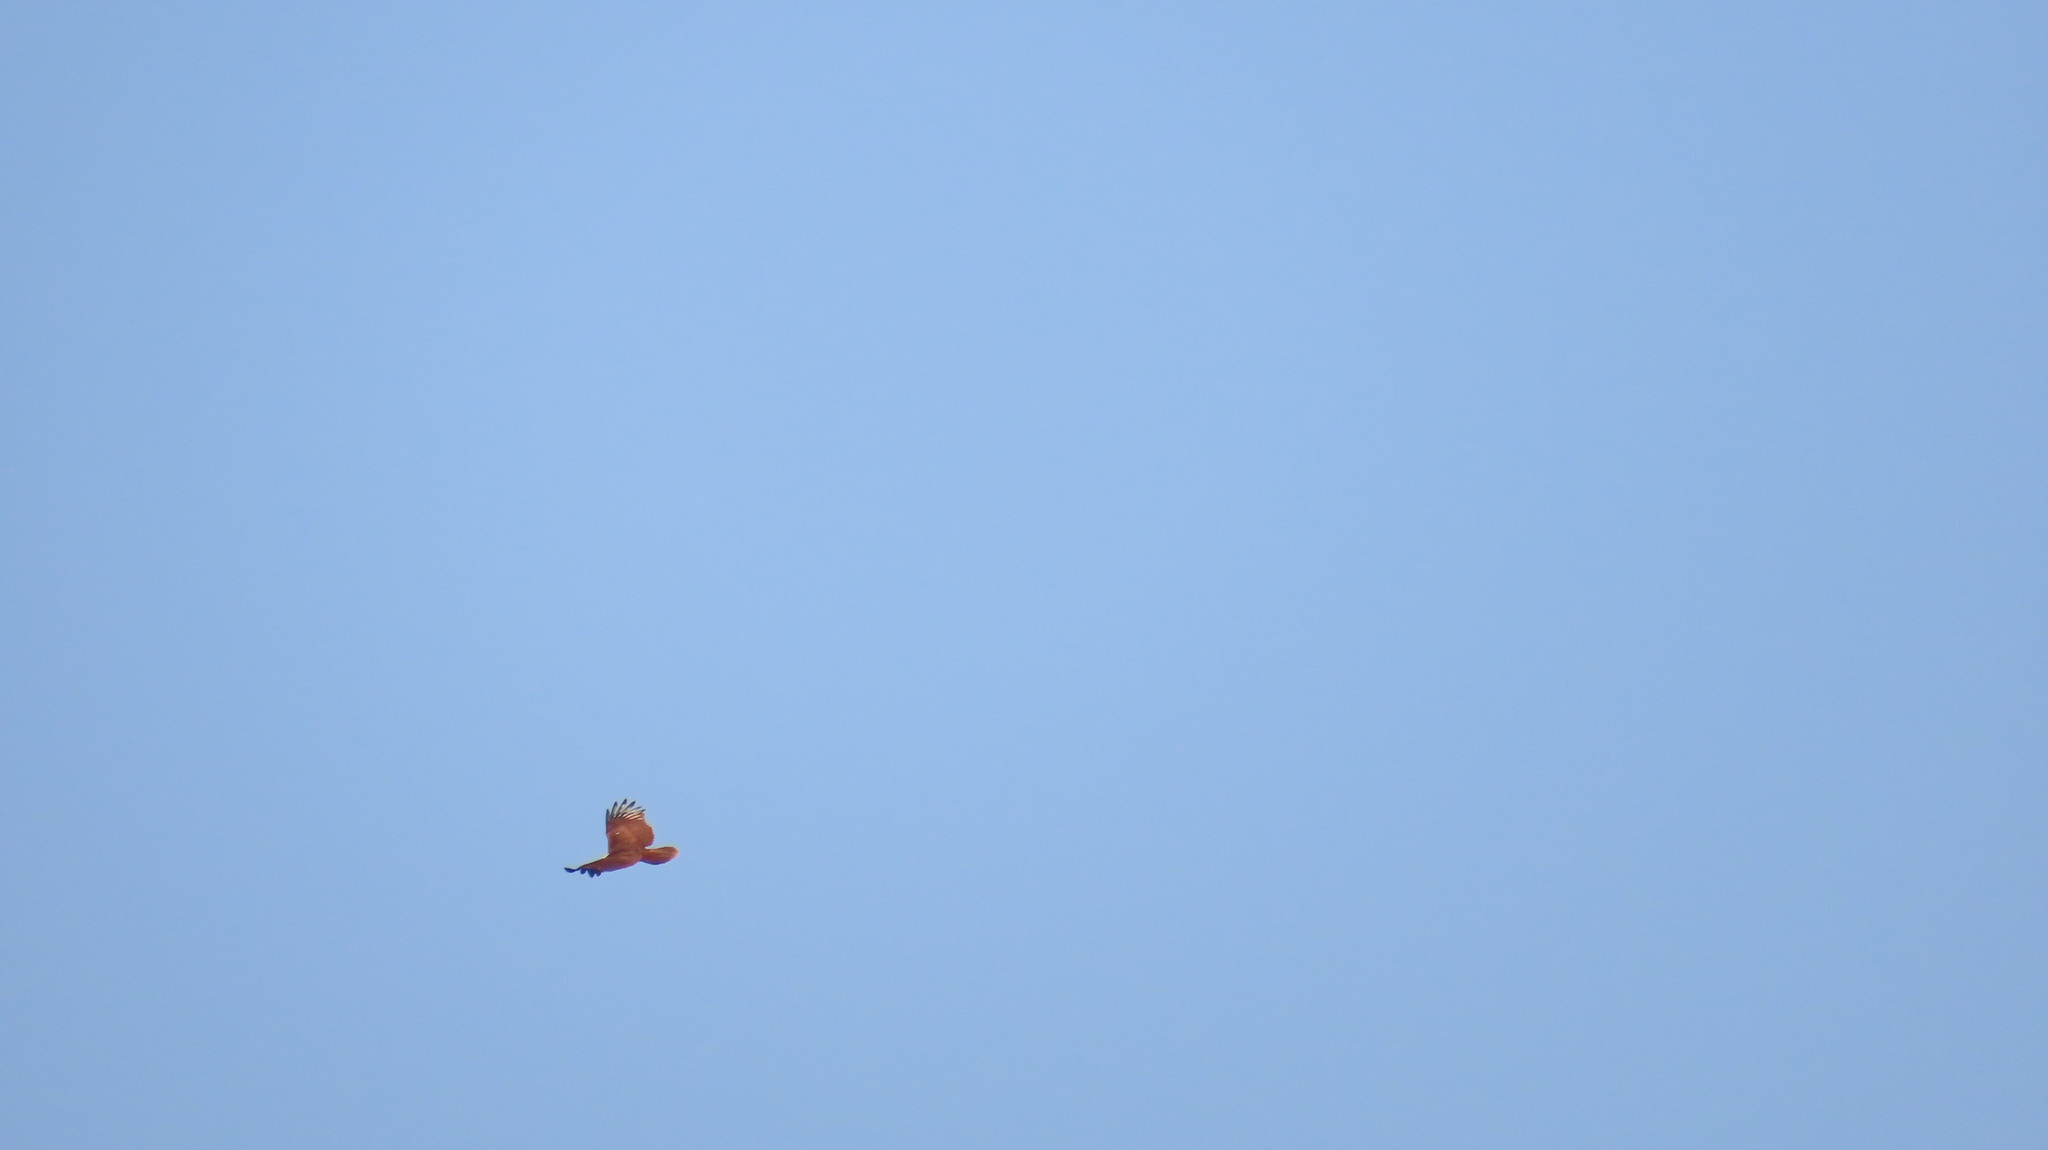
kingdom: Animalia
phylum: Chordata
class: Aves
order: Accipitriformes
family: Accipitridae
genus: Haliastur
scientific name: Haliastur indus
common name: Brahminy kite
